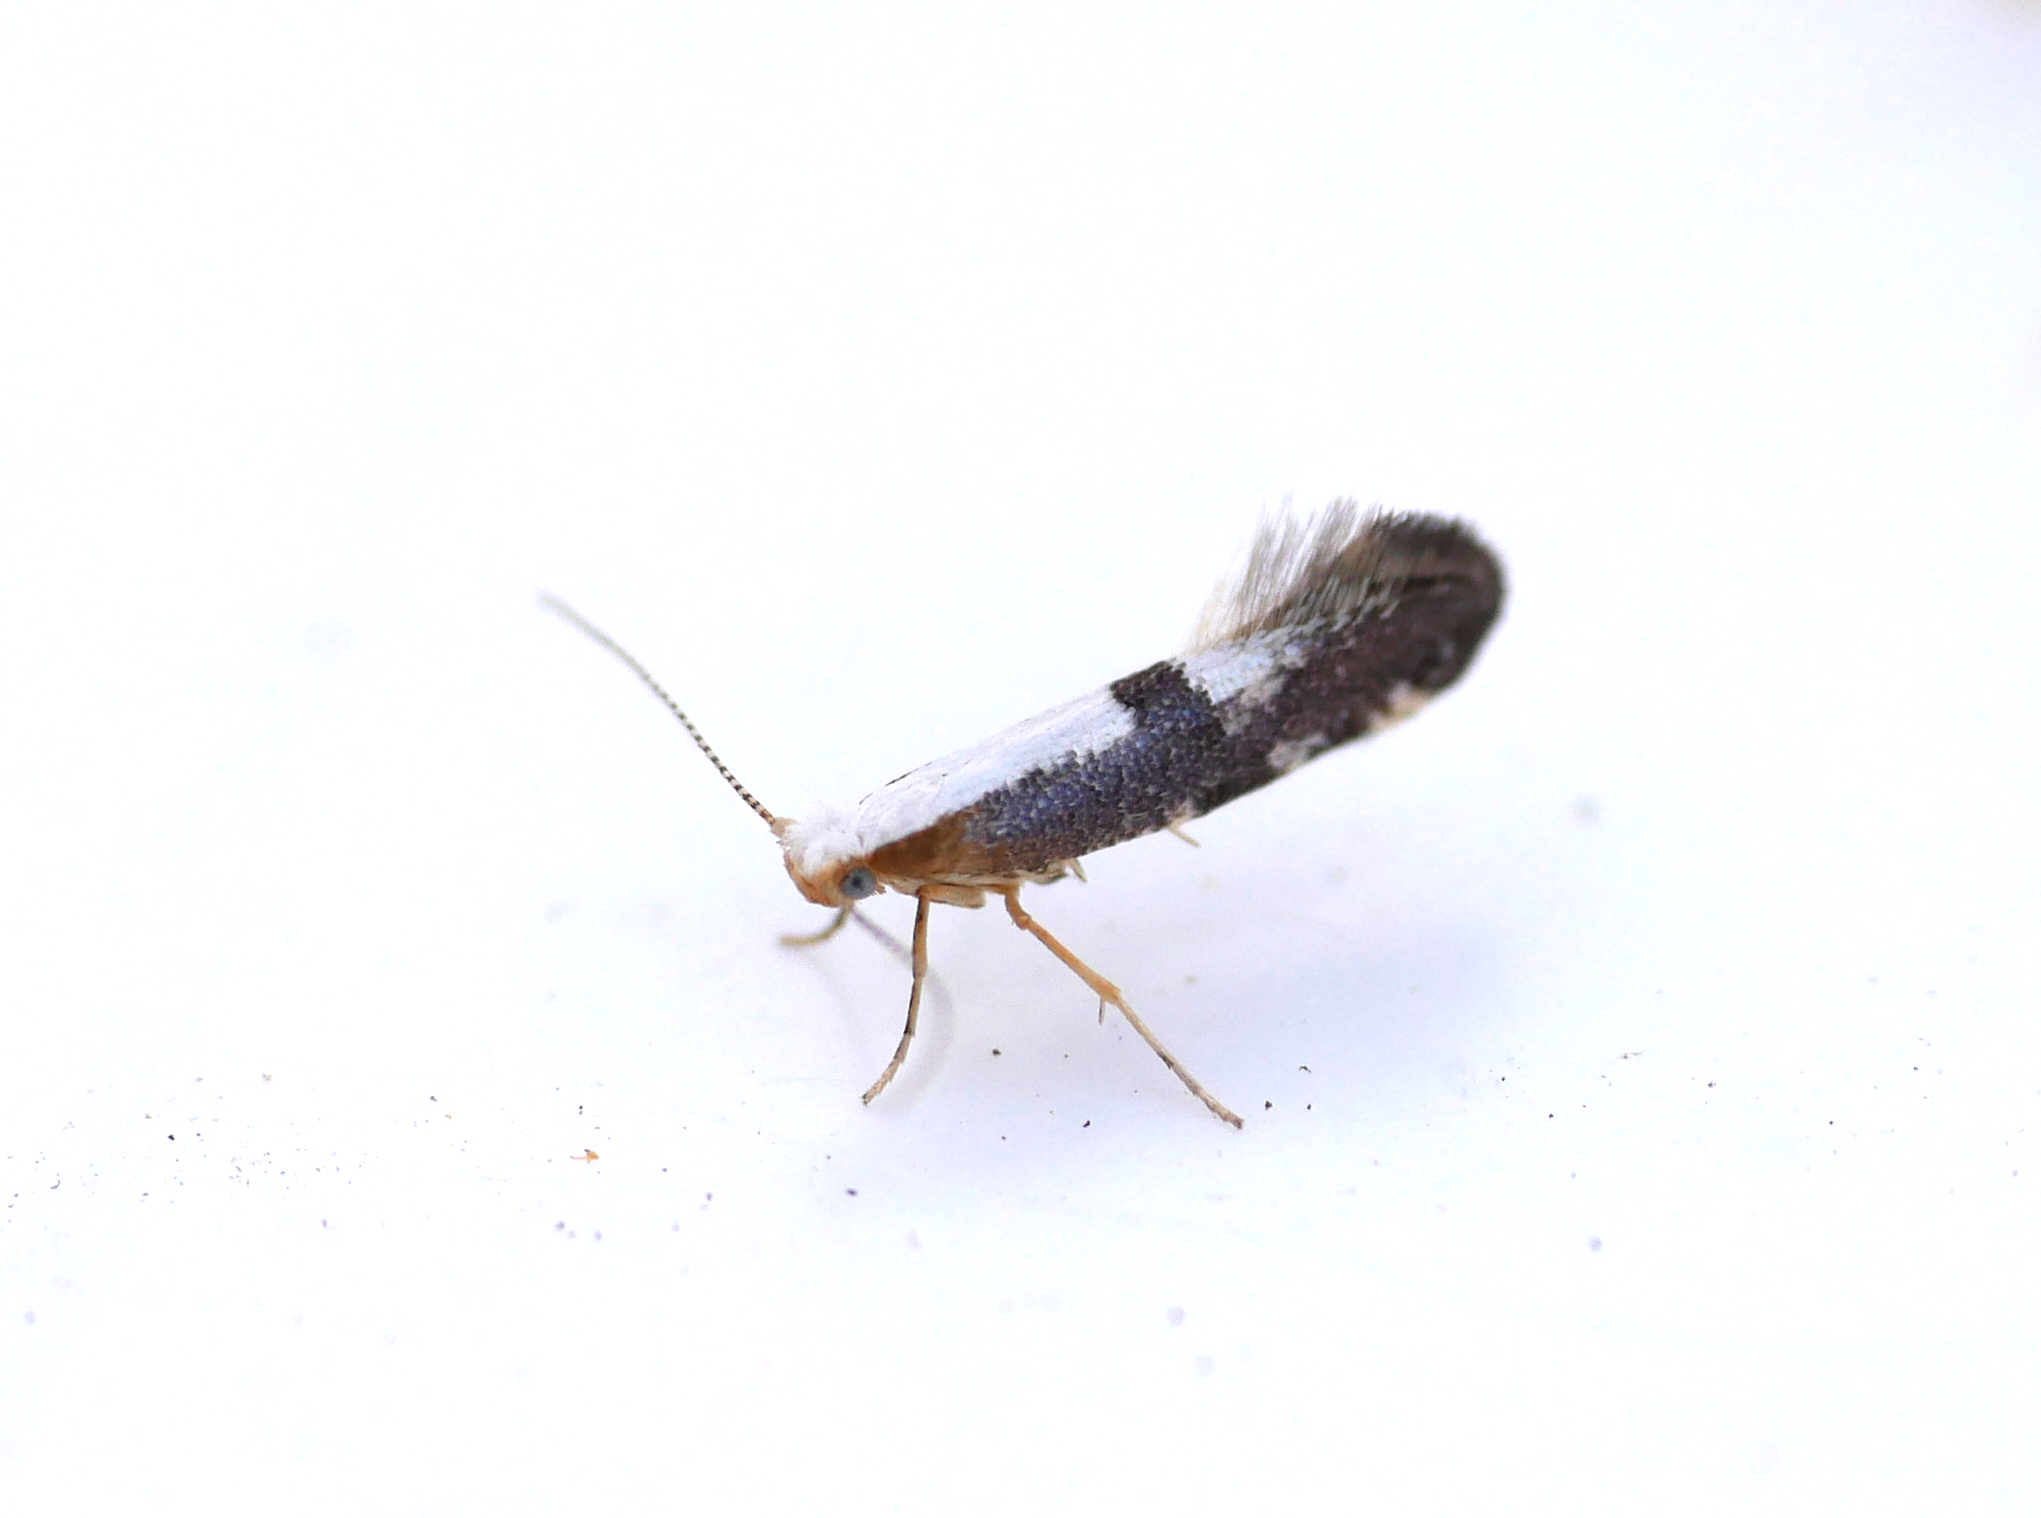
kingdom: Animalia
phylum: Arthropoda
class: Insecta
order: Lepidoptera
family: Argyresthiidae
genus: Argyresthia
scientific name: Argyresthia spinosella
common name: Blackthorn argent
